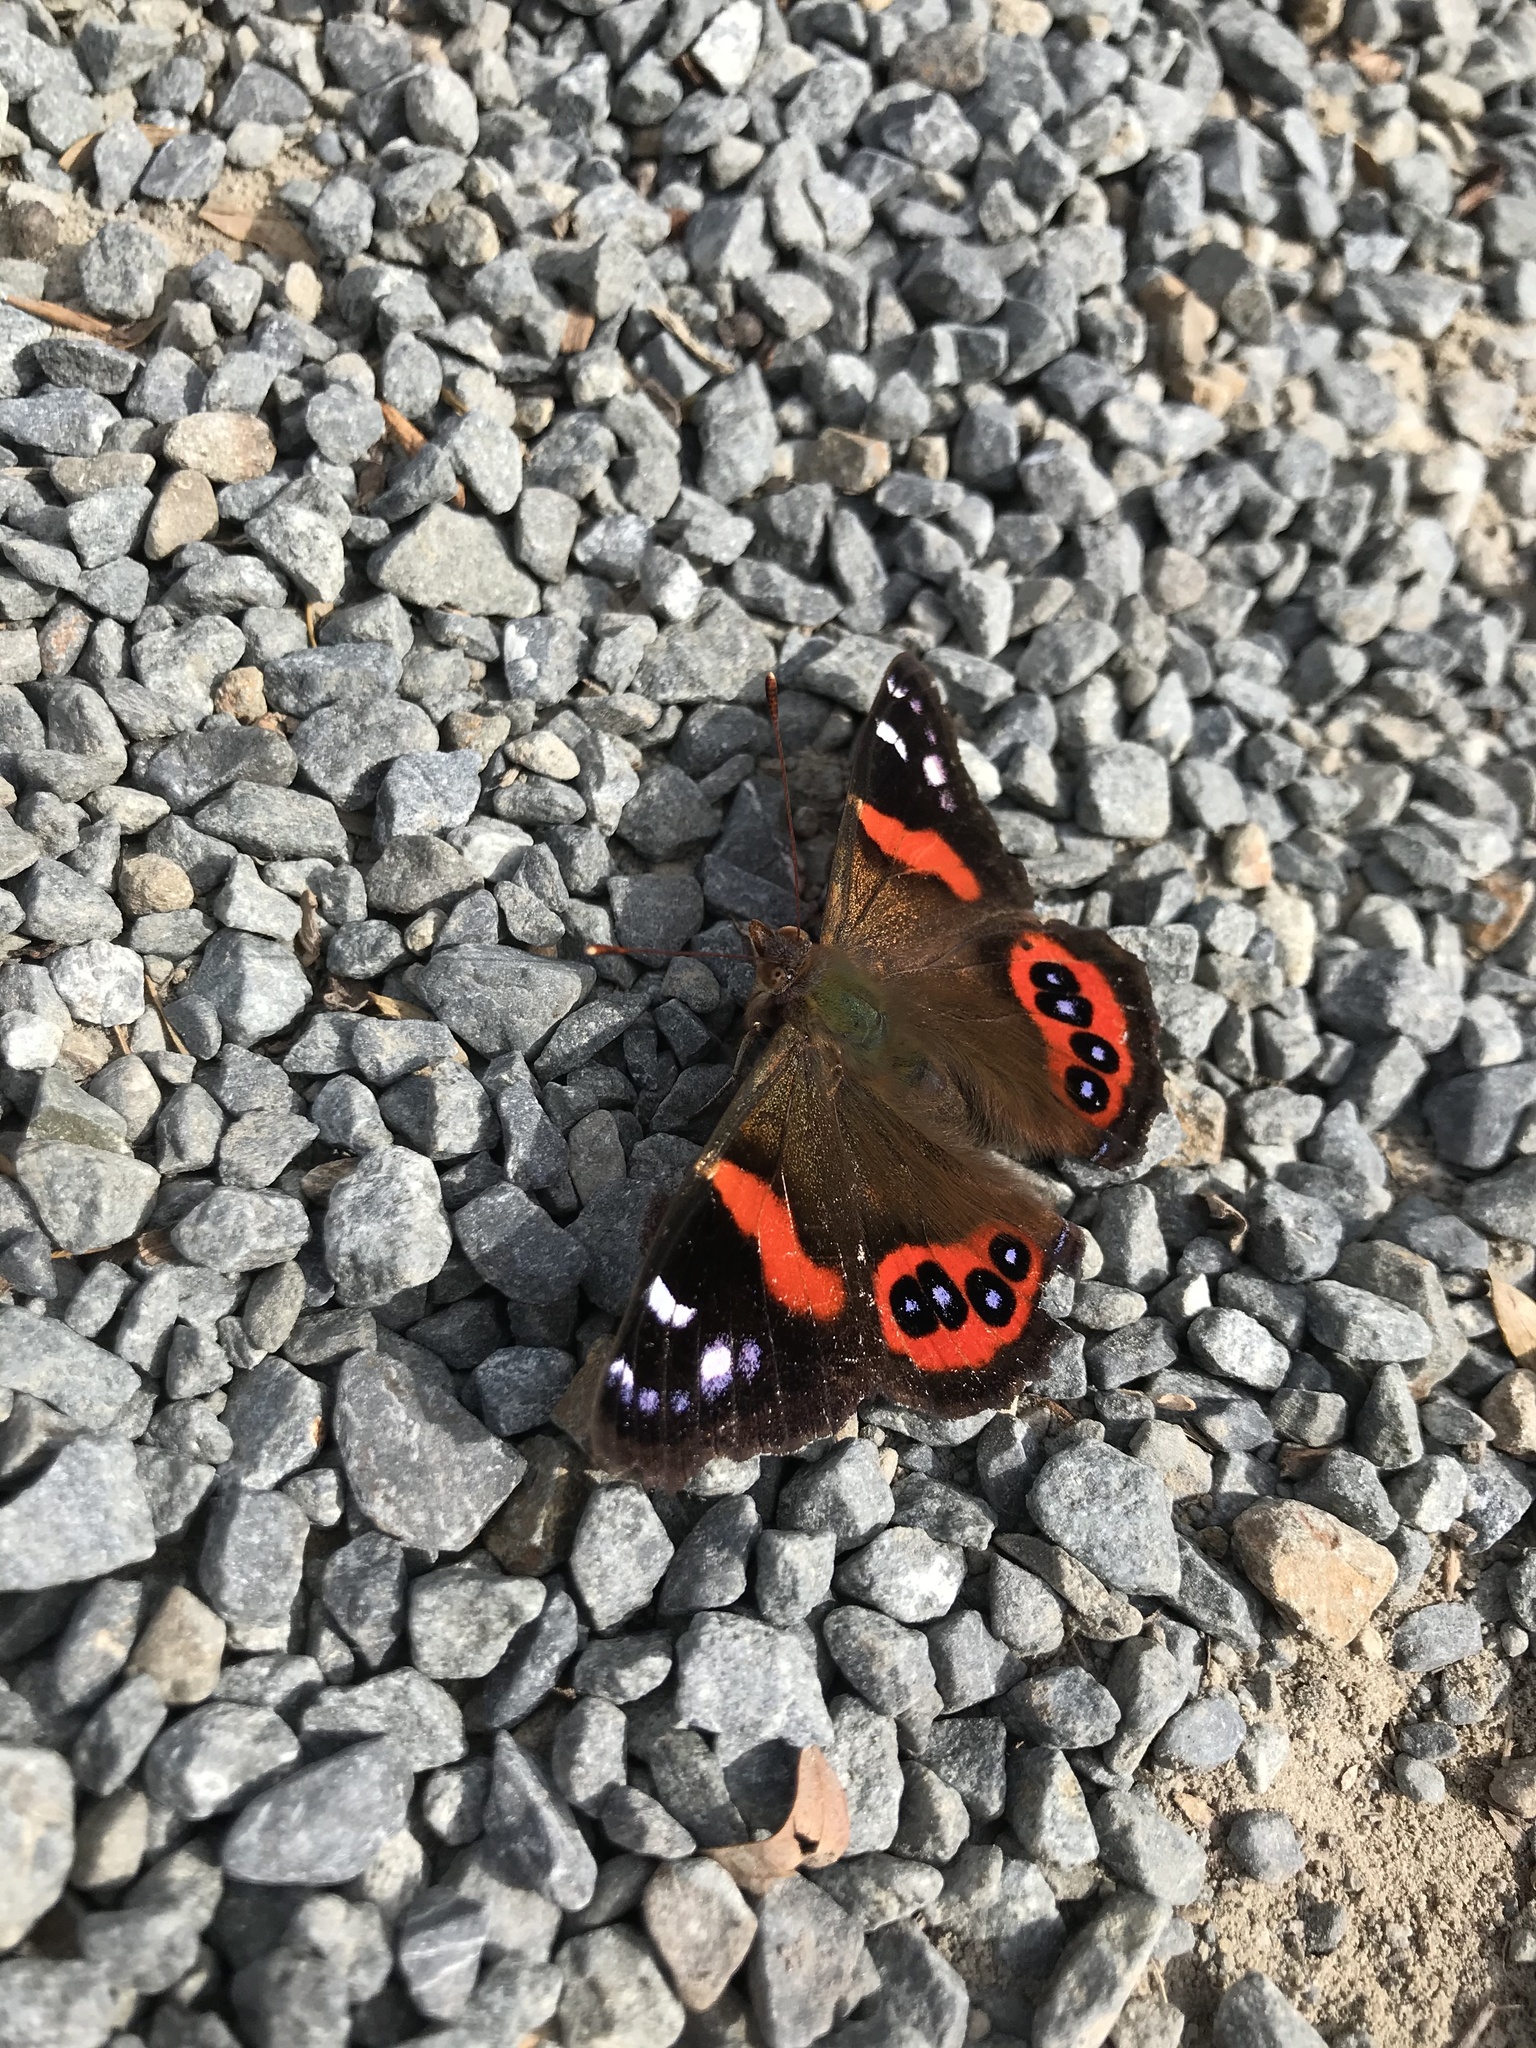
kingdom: Animalia
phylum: Arthropoda
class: Insecta
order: Lepidoptera
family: Nymphalidae
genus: Vanessa
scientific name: Vanessa gonerilla
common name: New zealand red admiral
